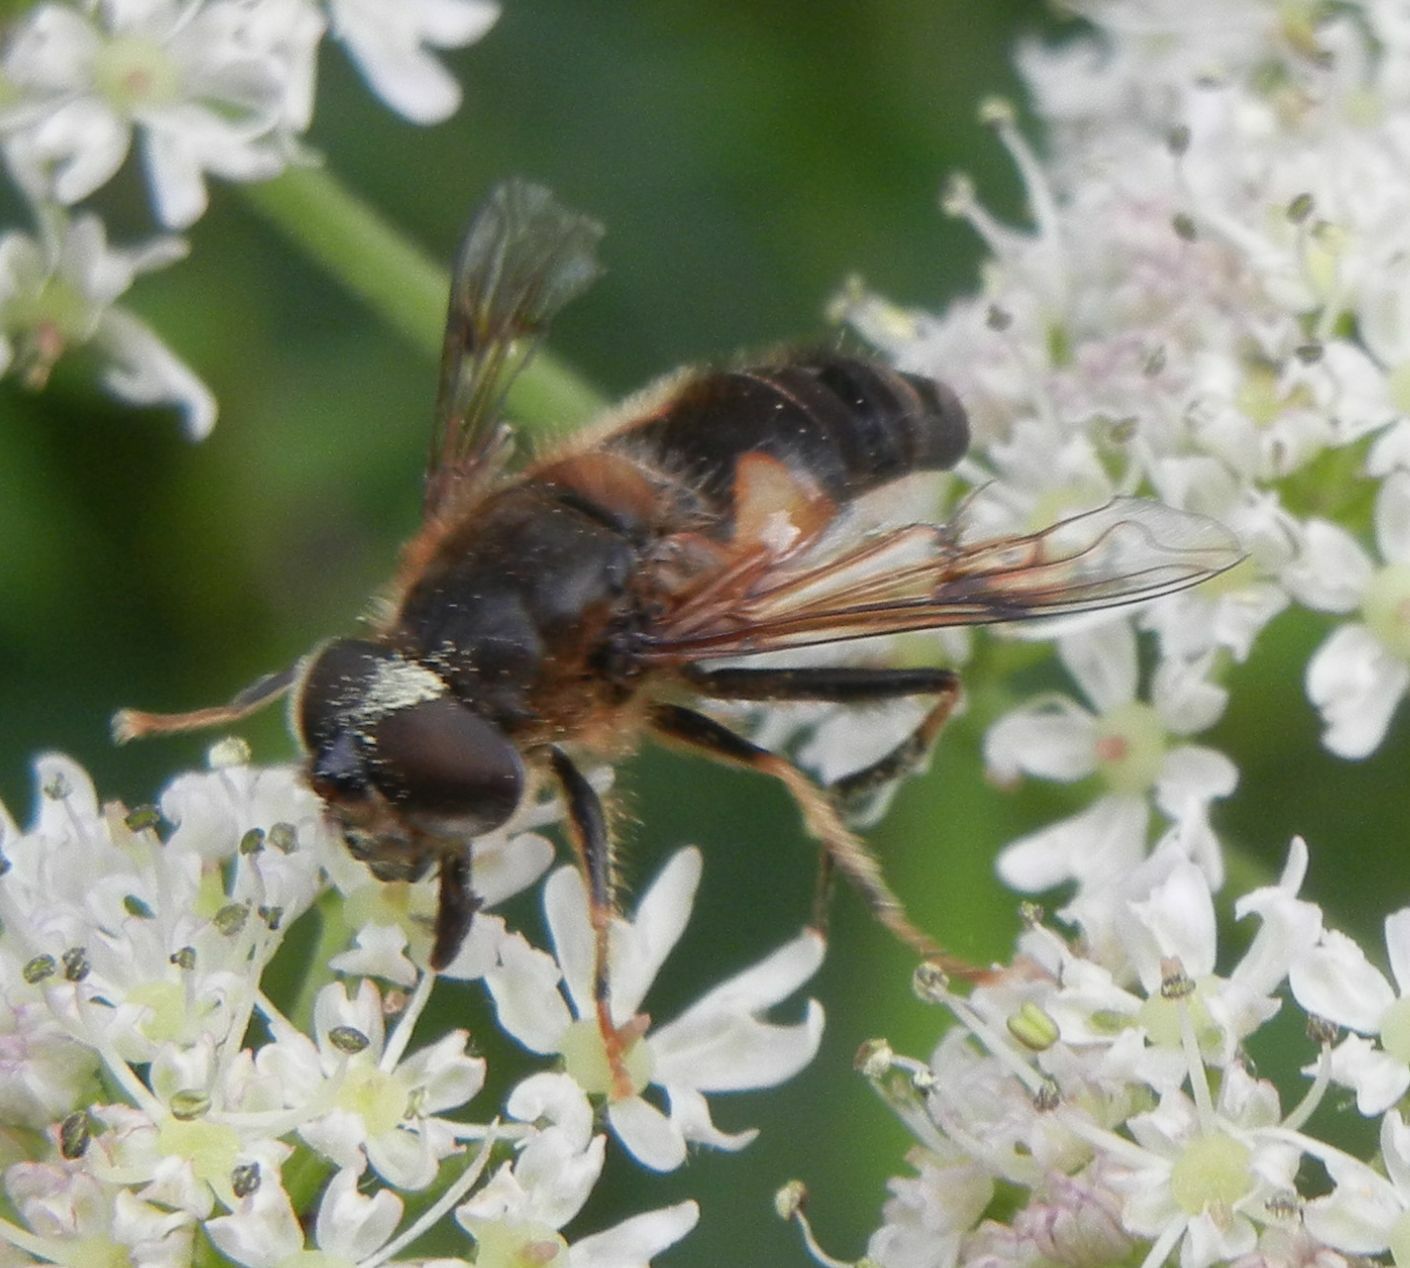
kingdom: Animalia
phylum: Arthropoda
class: Insecta
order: Diptera
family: Syrphidae
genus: Eristalis
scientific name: Eristalis pertinax
